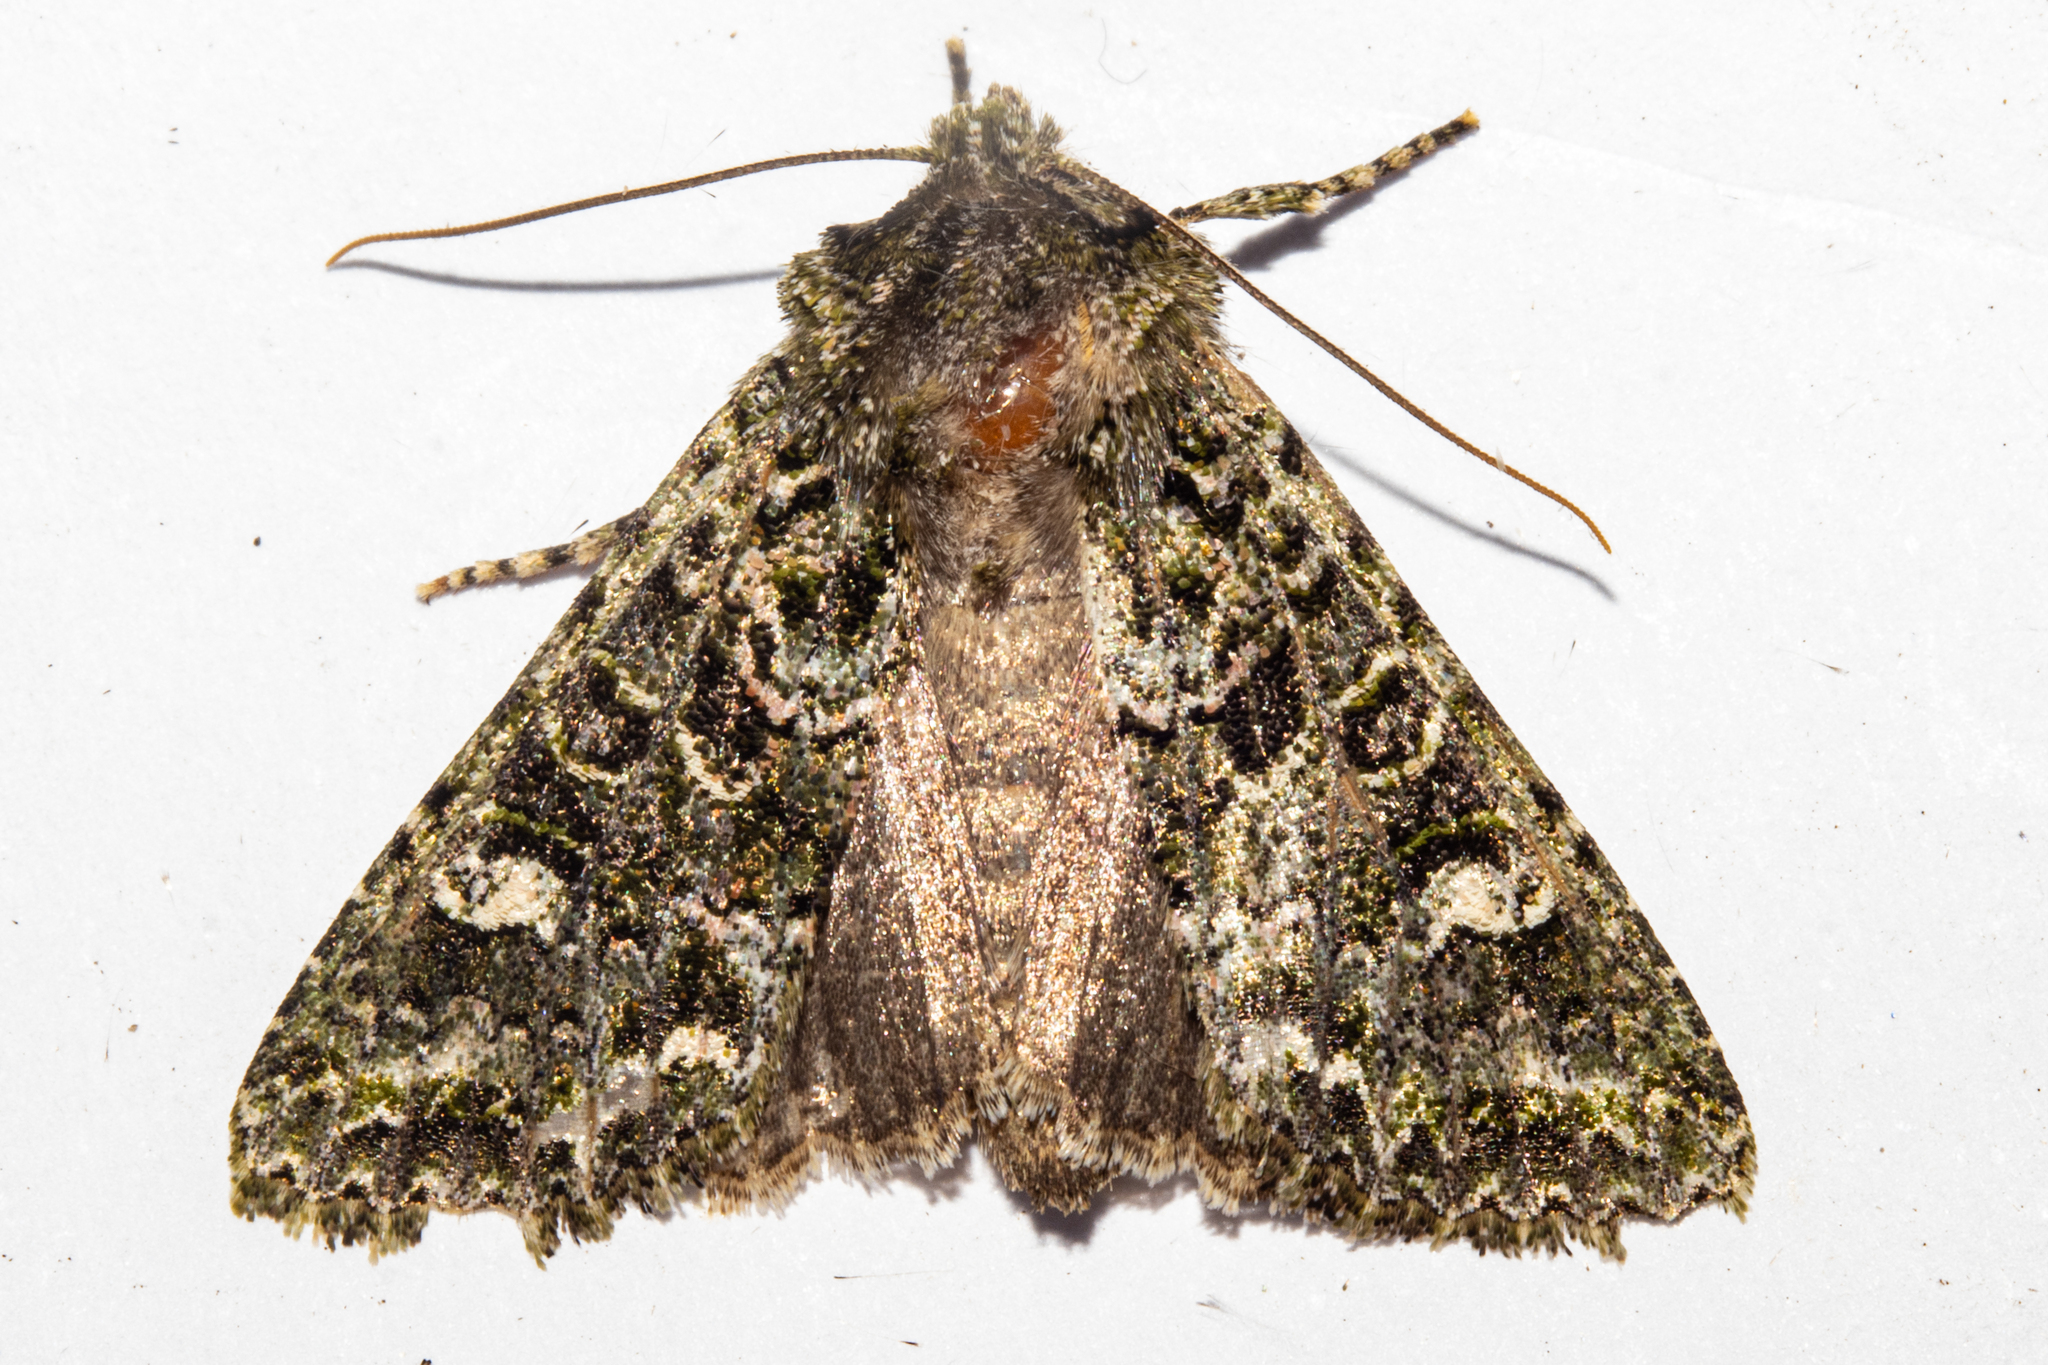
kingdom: Animalia
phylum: Arthropoda
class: Insecta
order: Lepidoptera
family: Noctuidae
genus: Ichneutica
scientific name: Ichneutica
